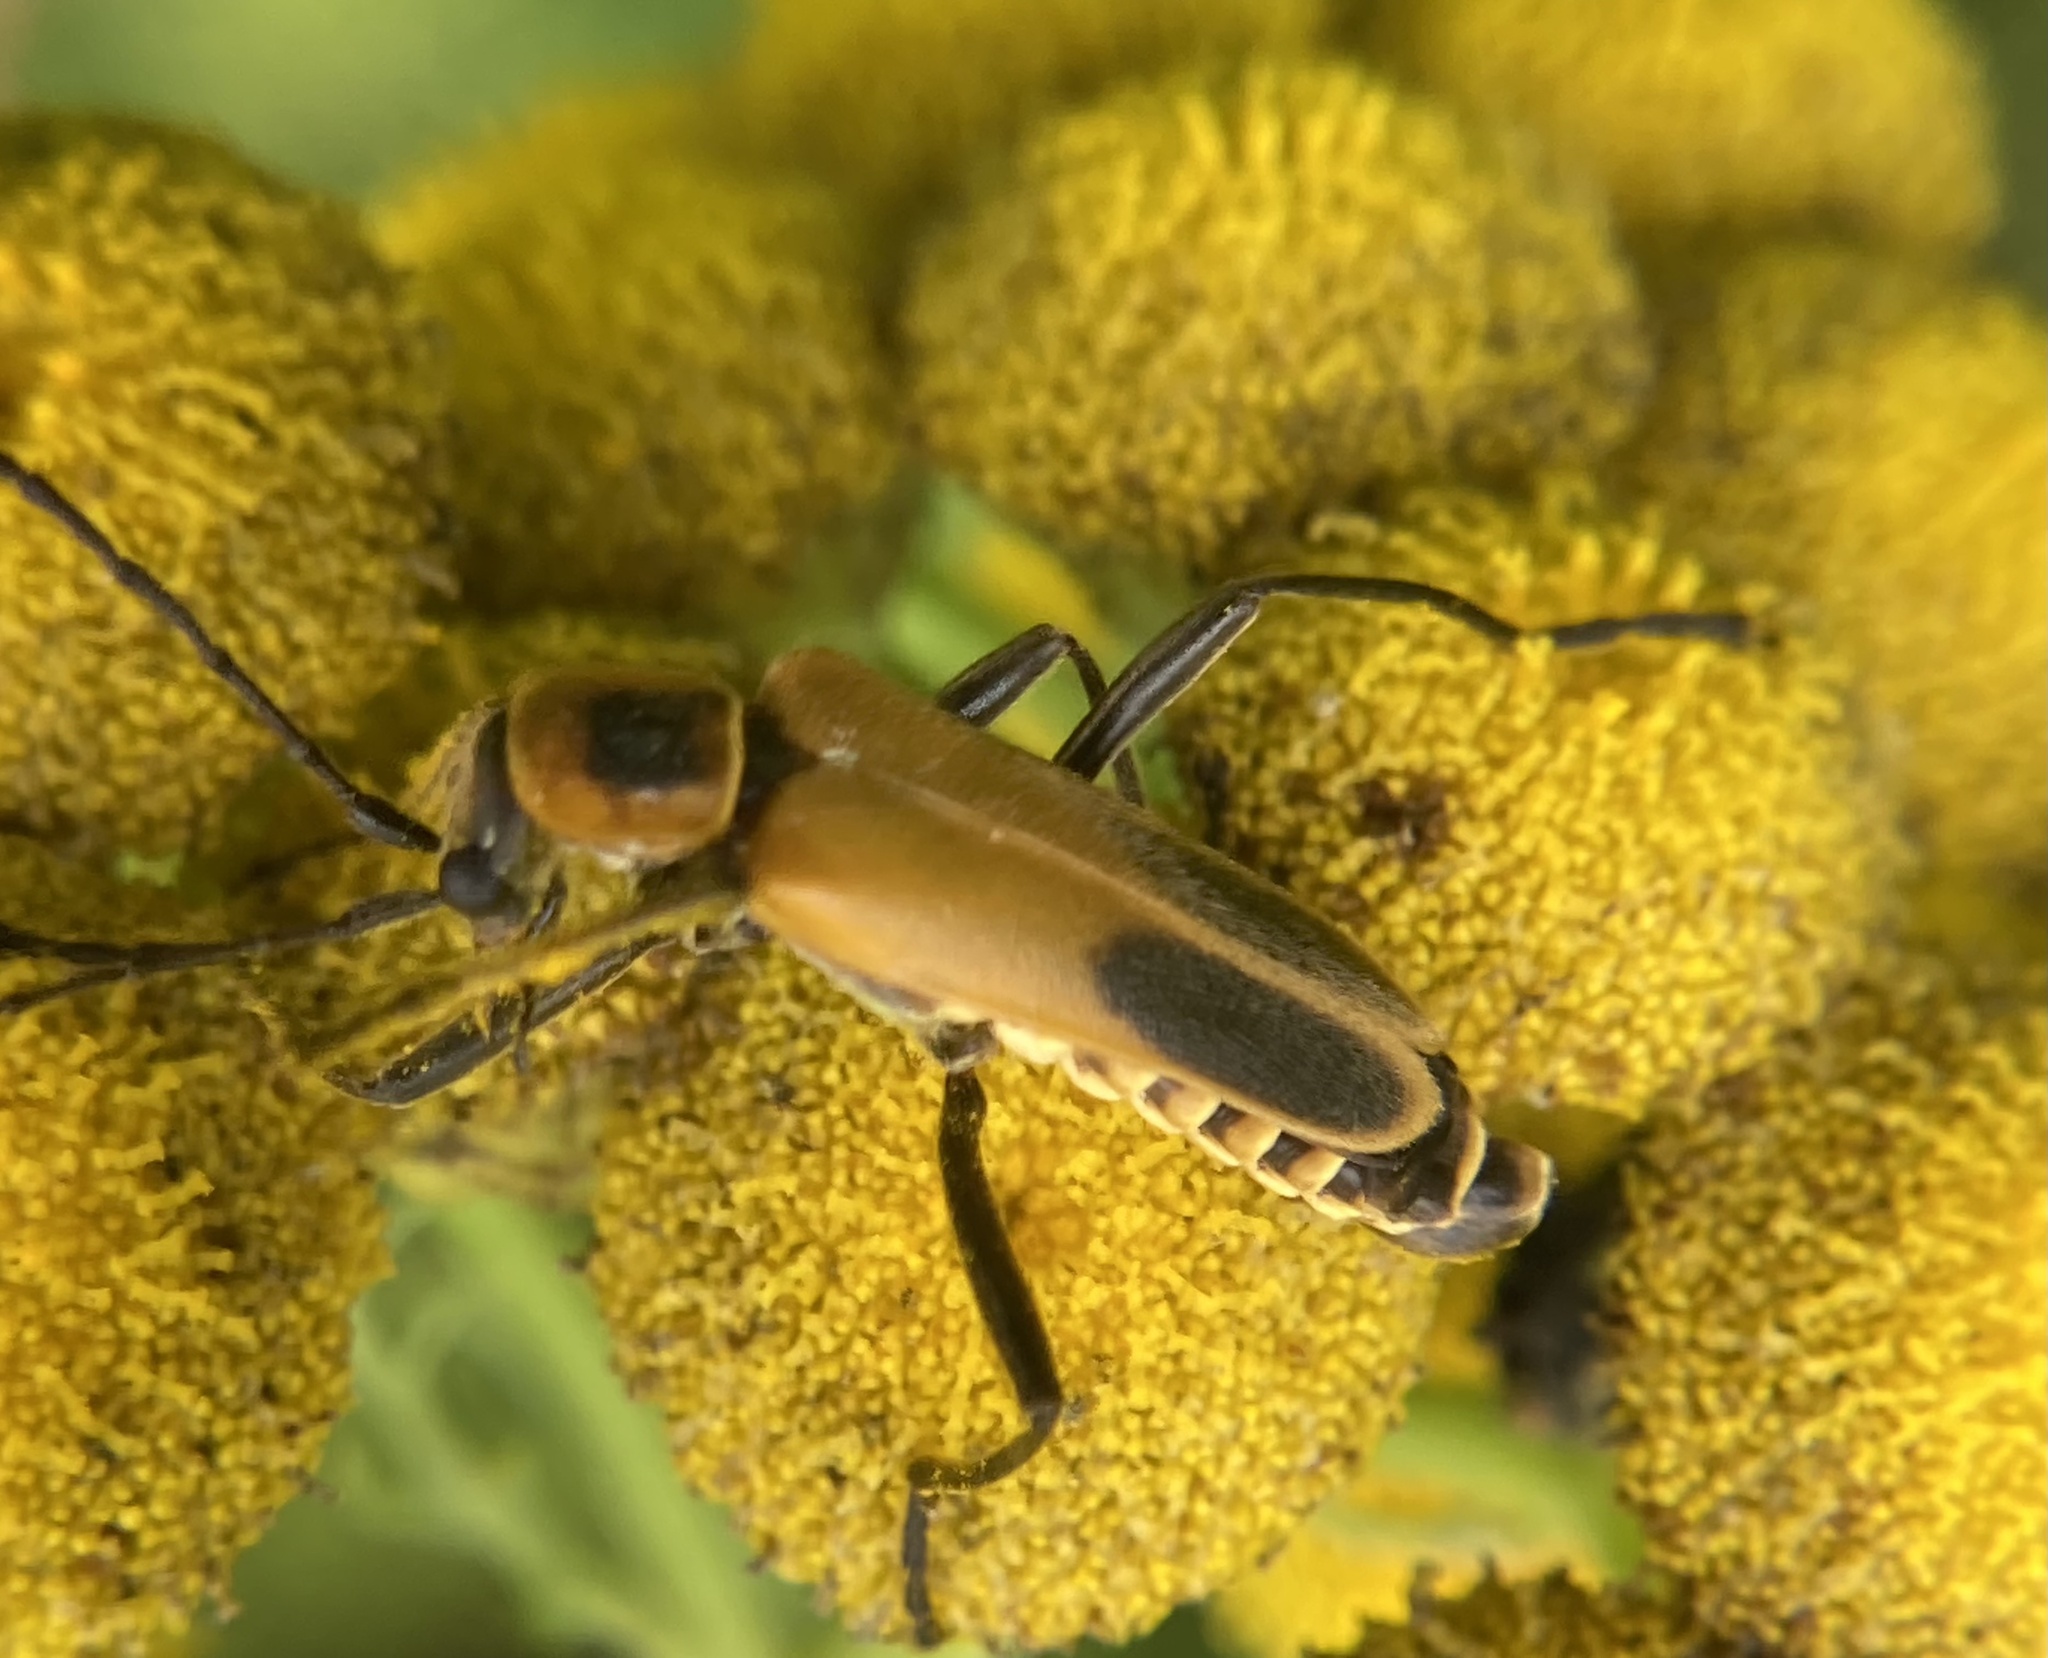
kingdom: Animalia
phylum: Arthropoda
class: Insecta
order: Coleoptera
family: Cantharidae
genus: Chauliognathus
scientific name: Chauliognathus pensylvanicus
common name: Goldenrod soldier beetle
